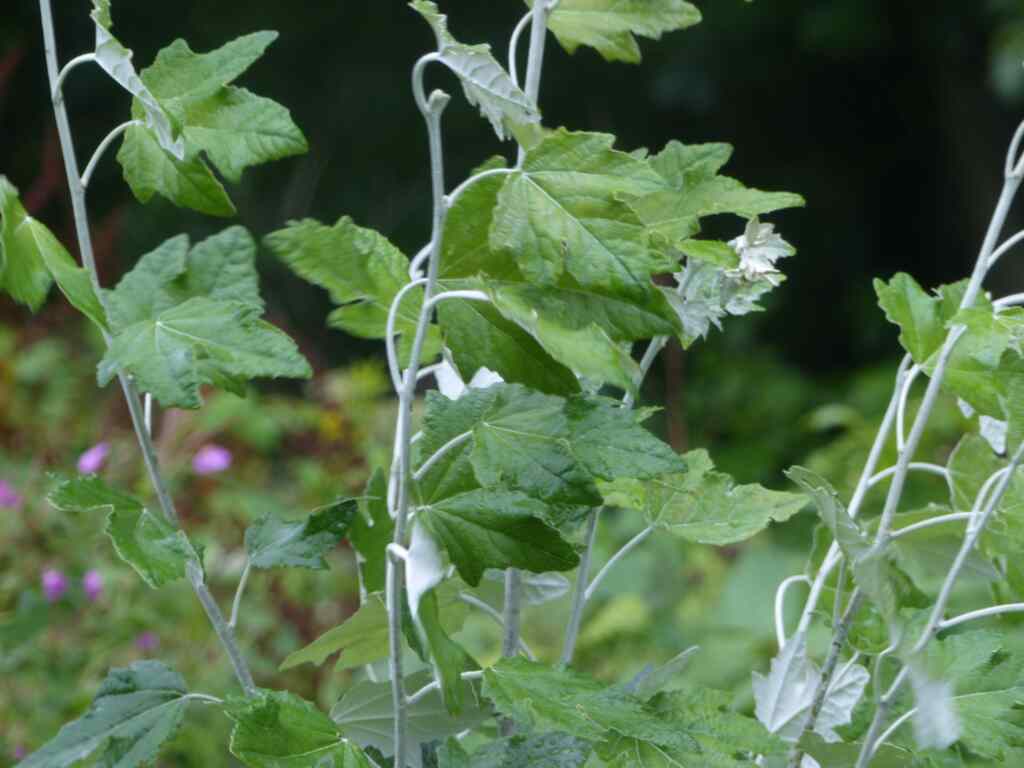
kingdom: Plantae
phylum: Tracheophyta
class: Magnoliopsida
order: Malpighiales
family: Salicaceae
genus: Populus
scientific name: Populus alba
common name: White poplar
